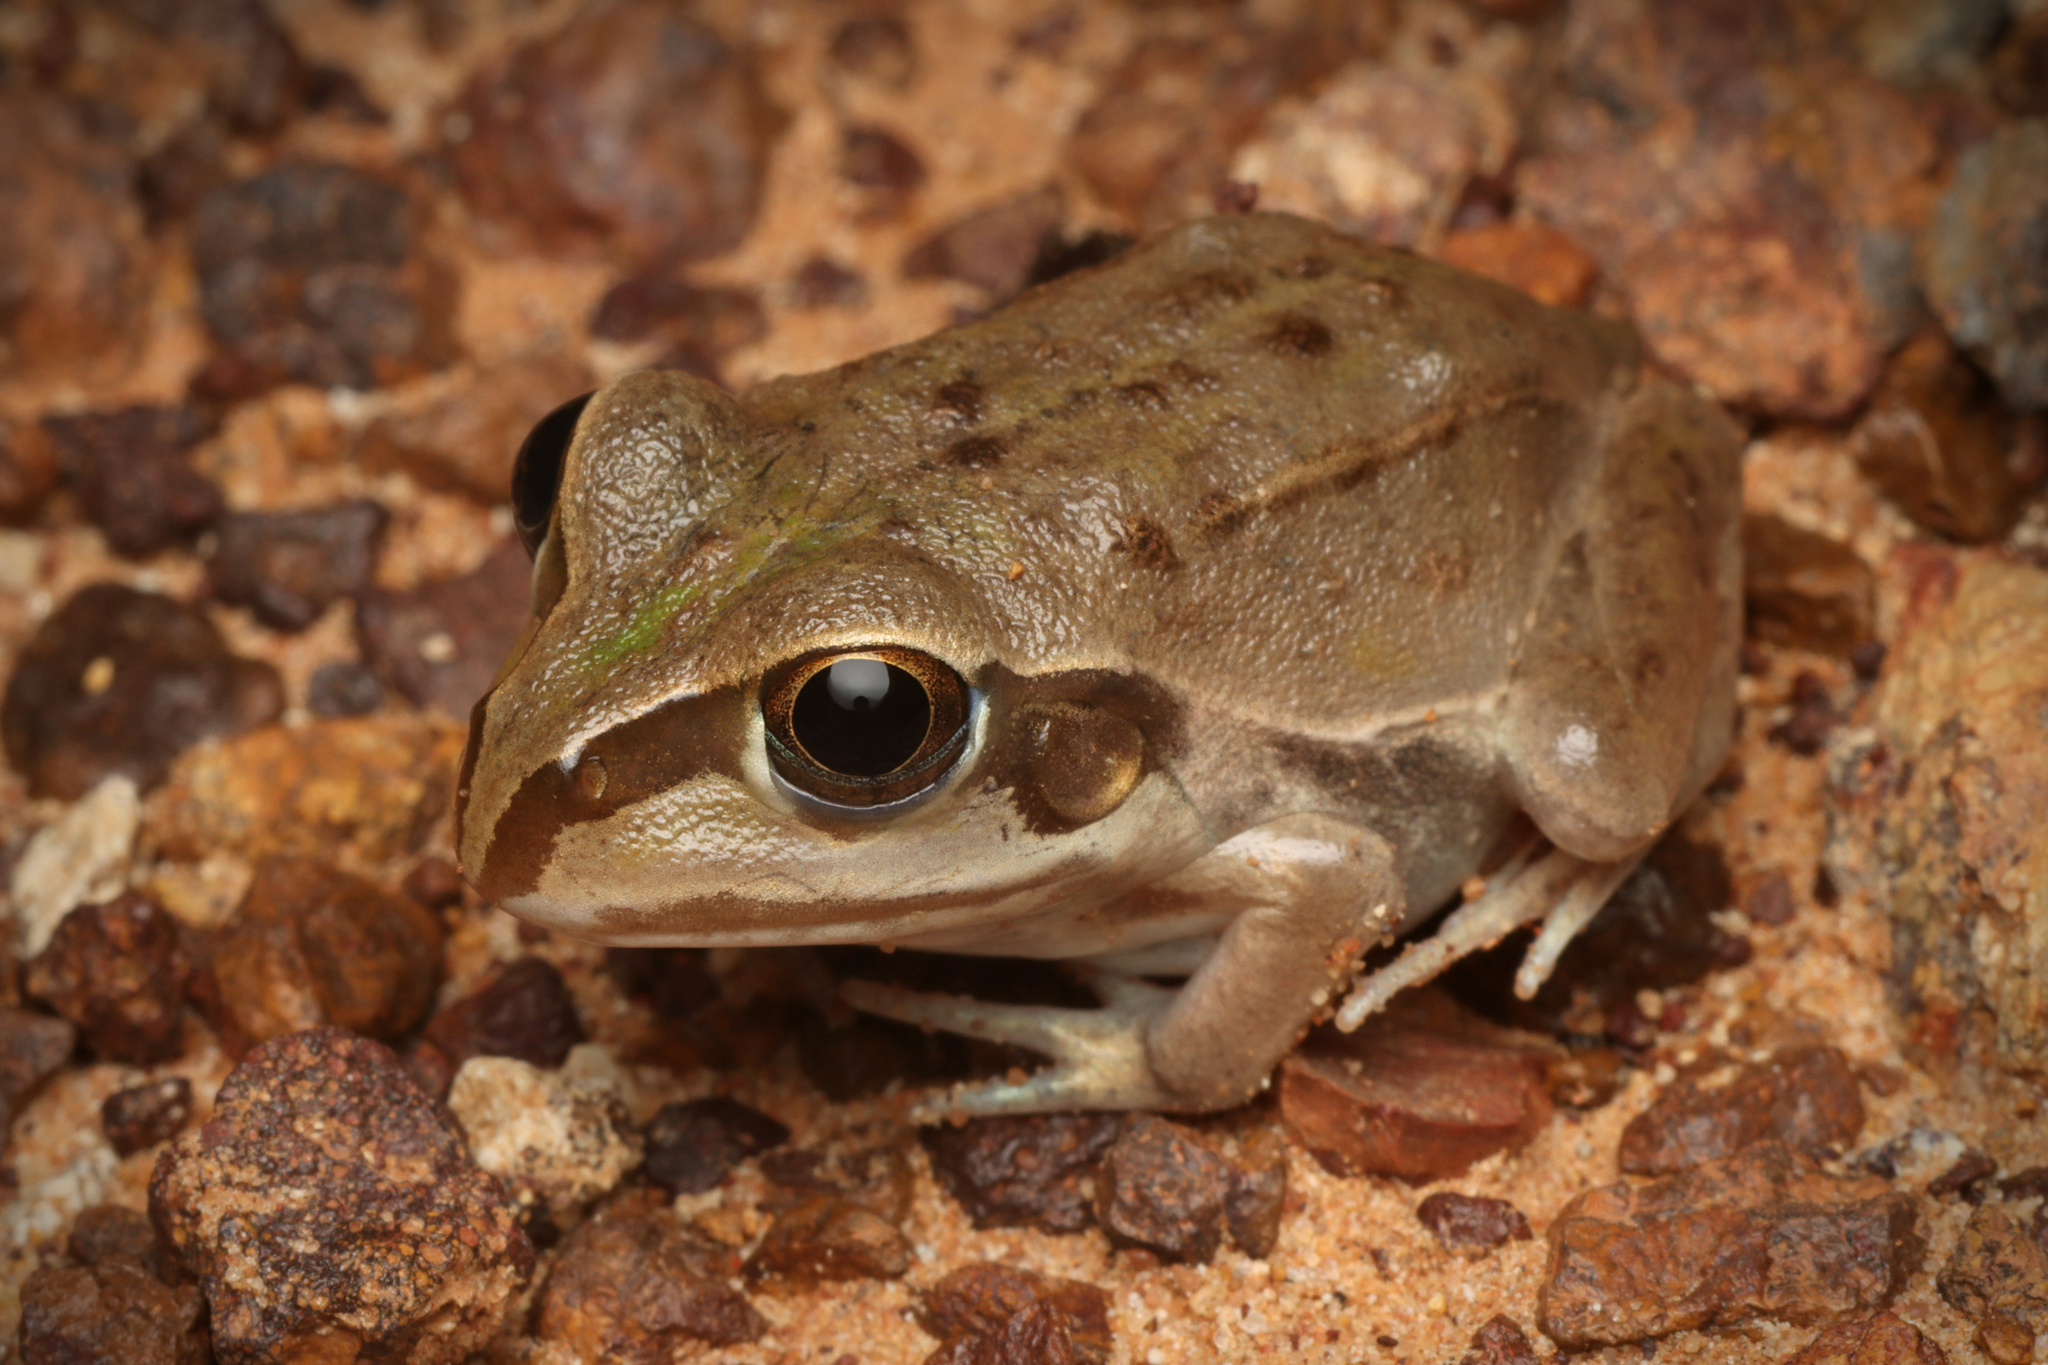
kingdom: Animalia
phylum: Chordata
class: Amphibia
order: Anura
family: Pelodryadidae
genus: Ranoidea
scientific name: Ranoidea australis
